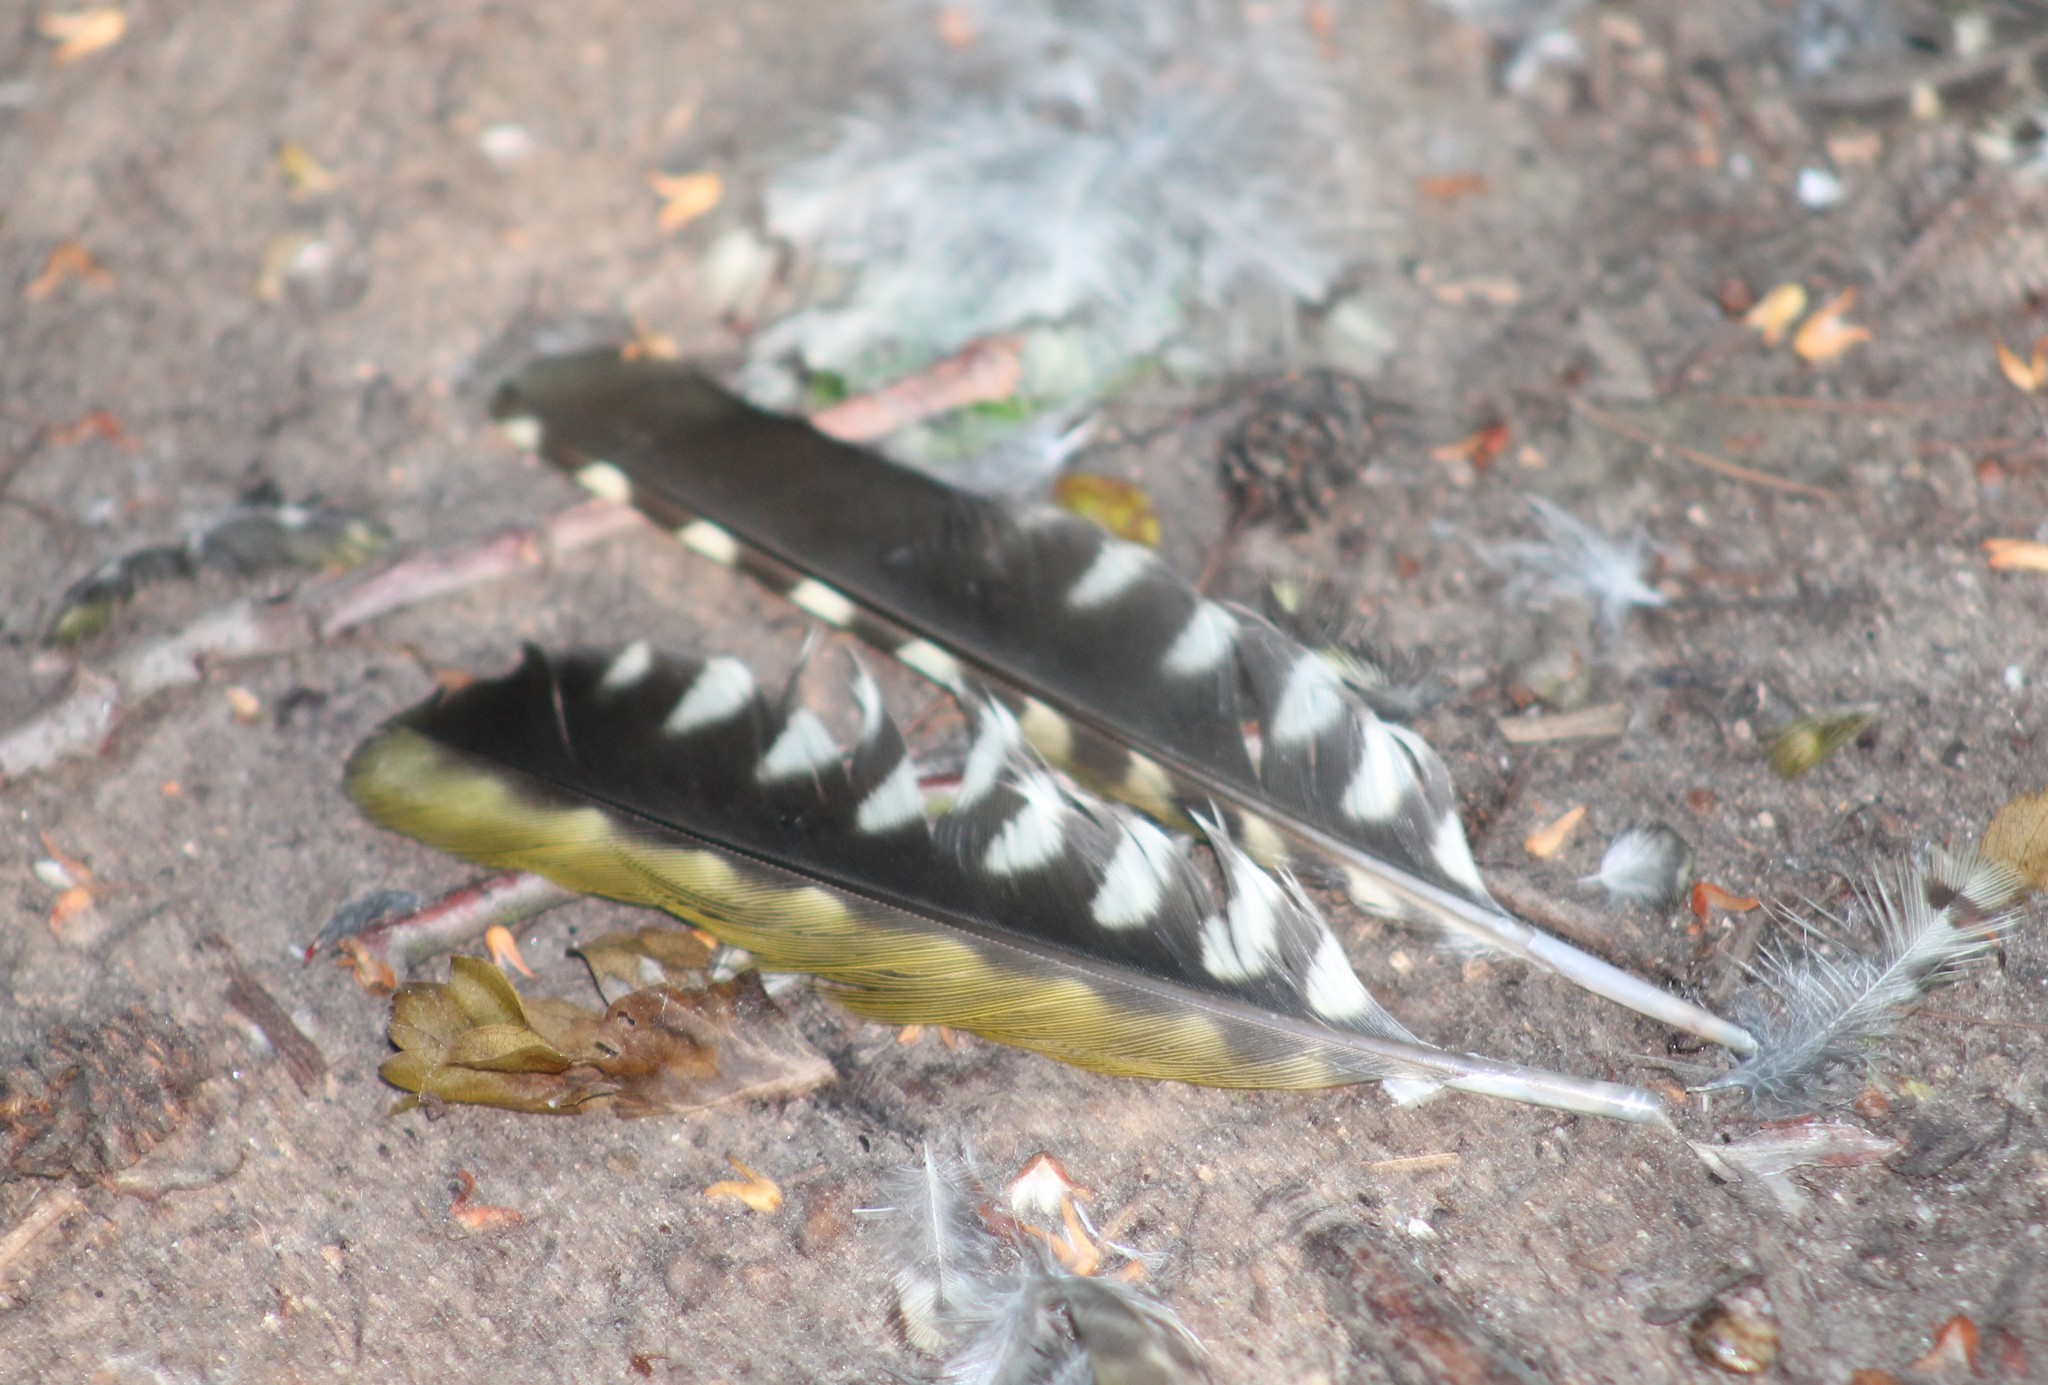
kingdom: Animalia
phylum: Chordata
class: Aves
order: Piciformes
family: Picidae
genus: Picus
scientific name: Picus viridis
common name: European green woodpecker
